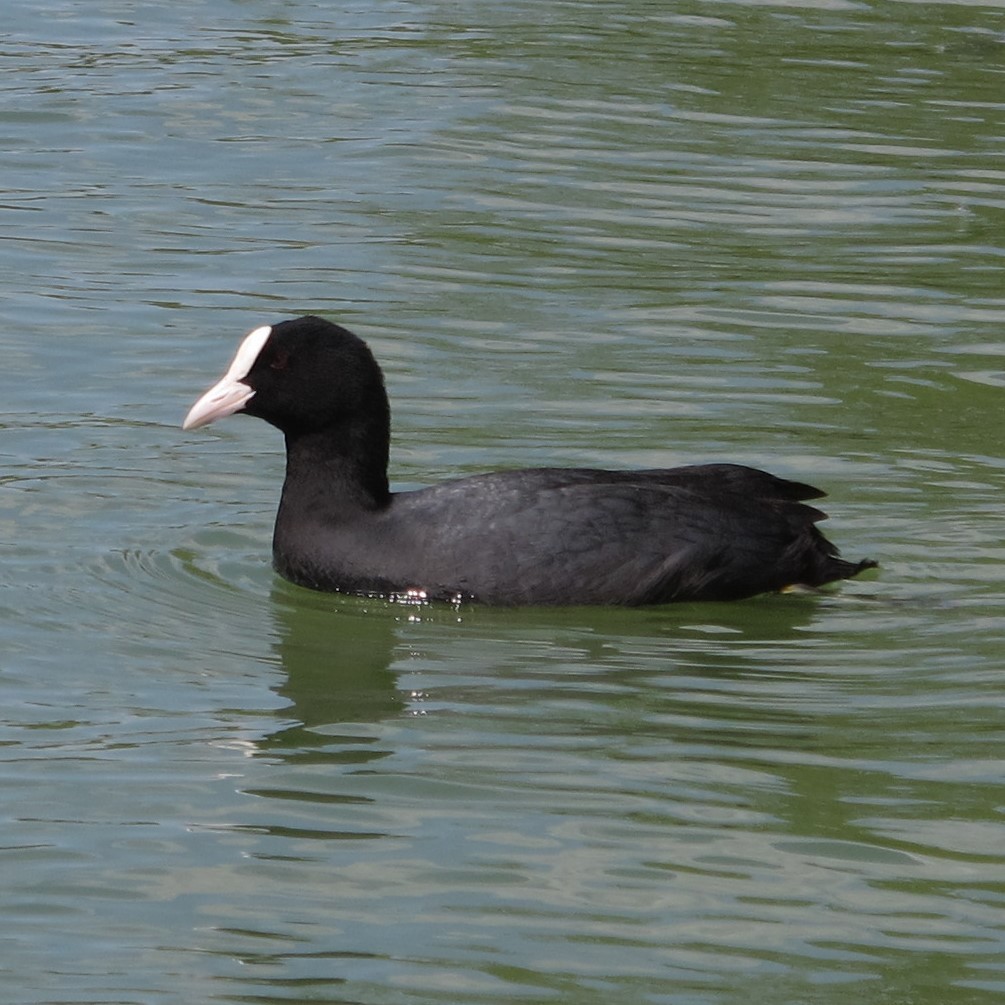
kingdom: Animalia
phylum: Chordata
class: Aves
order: Gruiformes
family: Rallidae
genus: Fulica
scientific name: Fulica atra
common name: Eurasian coot
